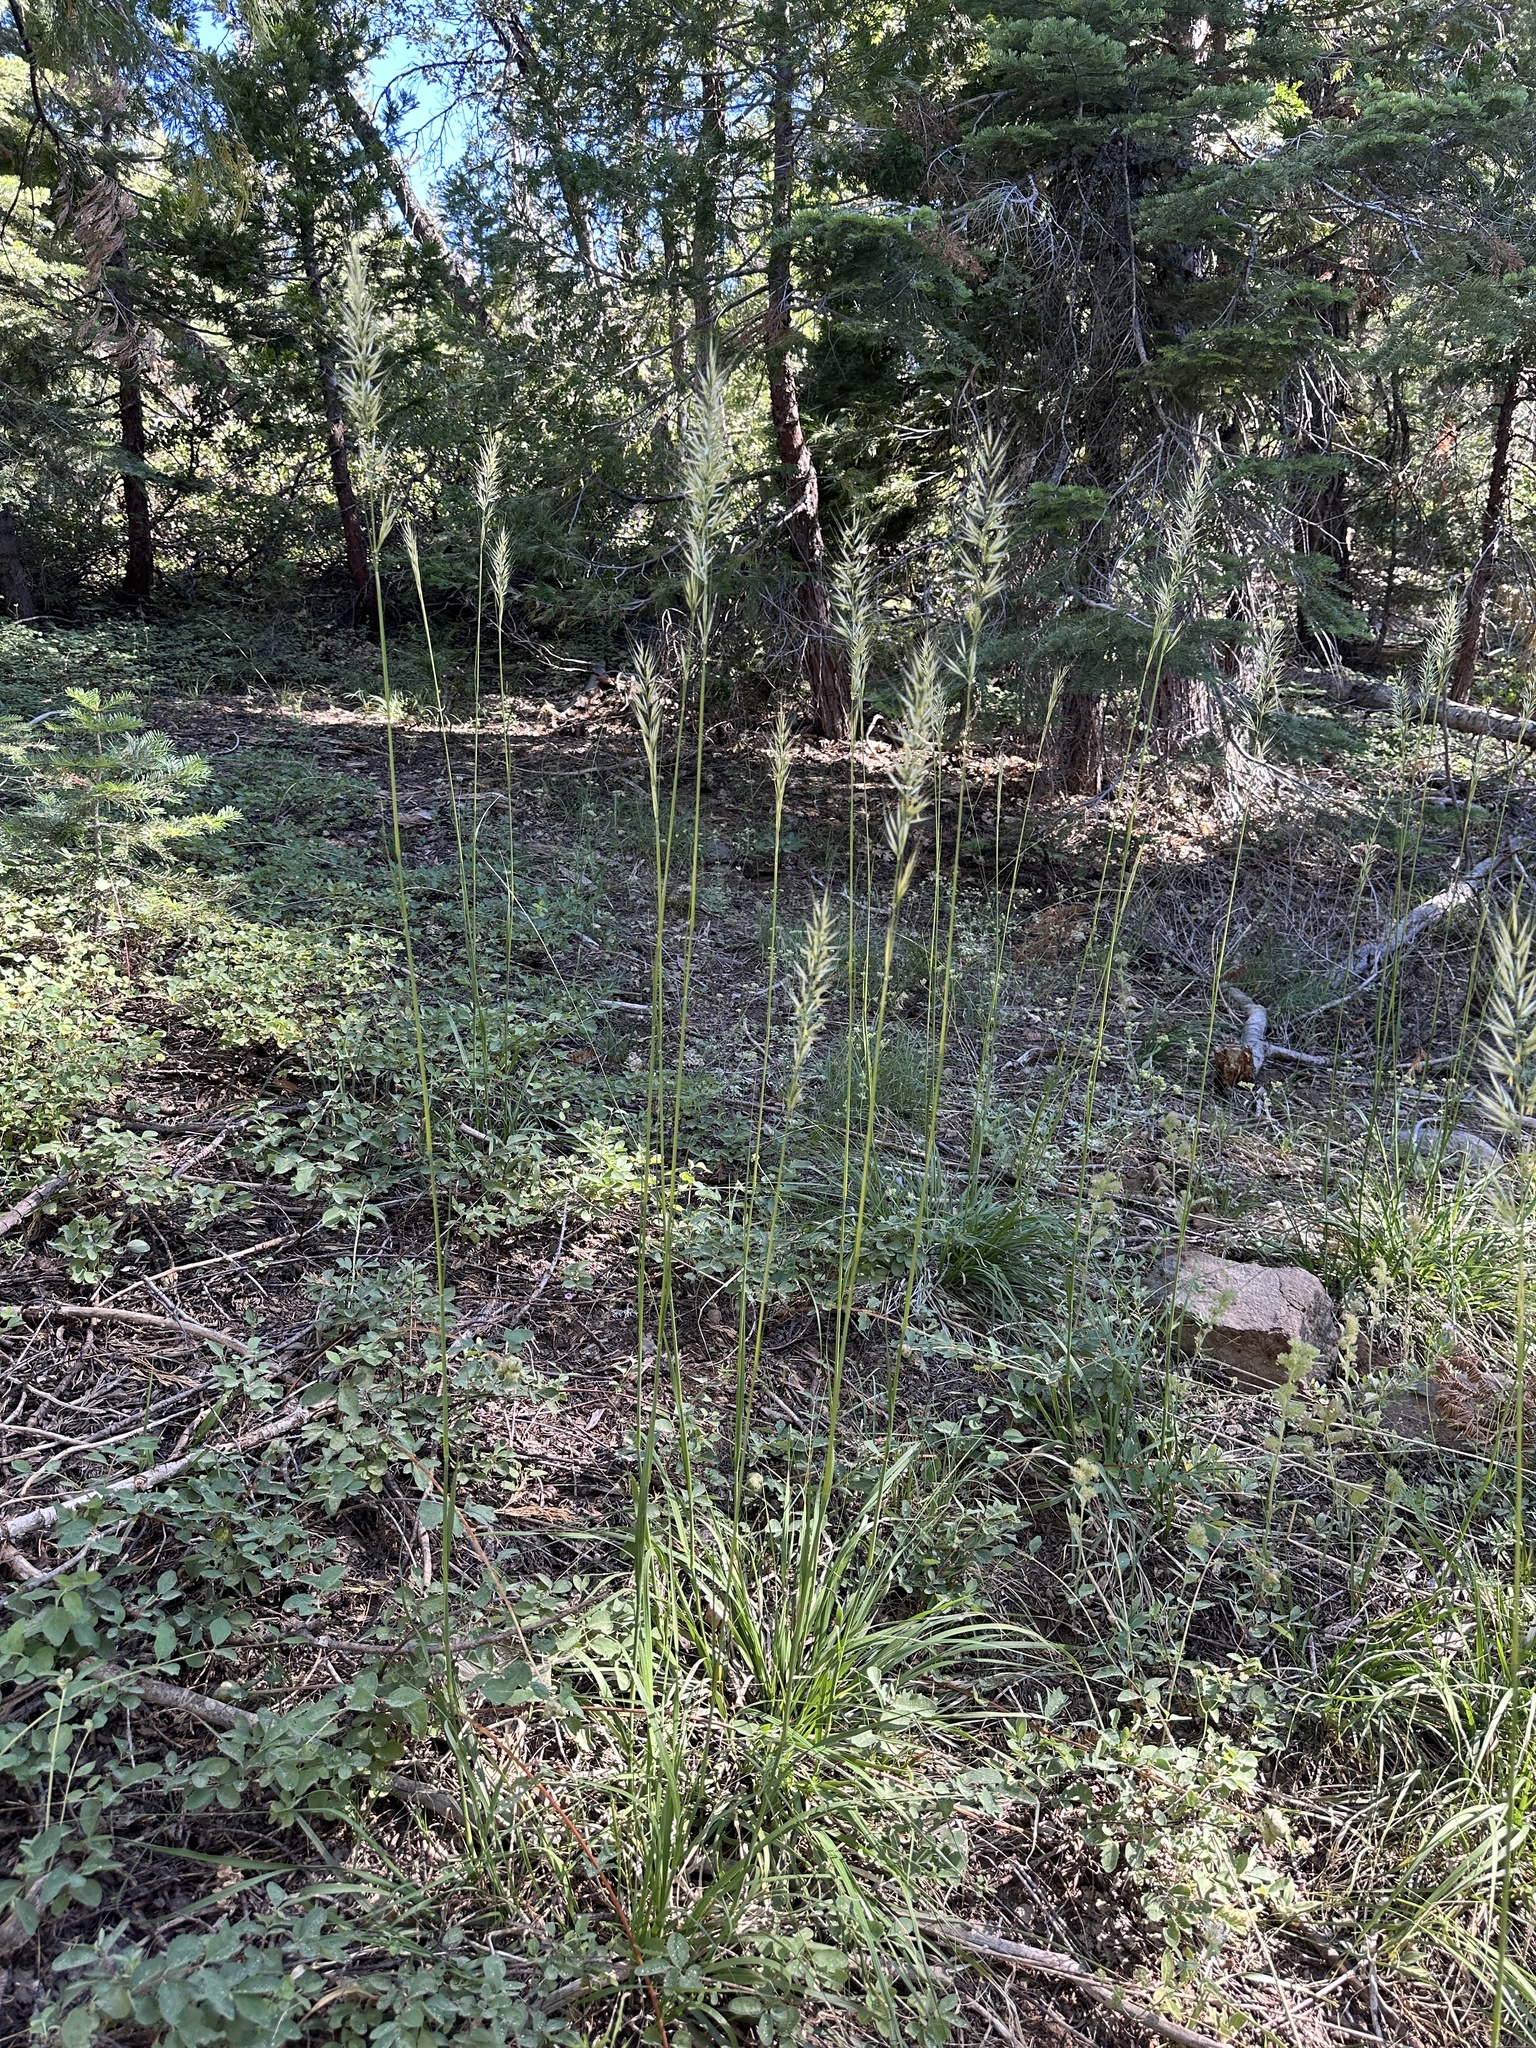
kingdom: Plantae
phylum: Tracheophyta
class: Liliopsida
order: Poales
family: Poaceae
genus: Barkworthia
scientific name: Barkworthia stillmanii
